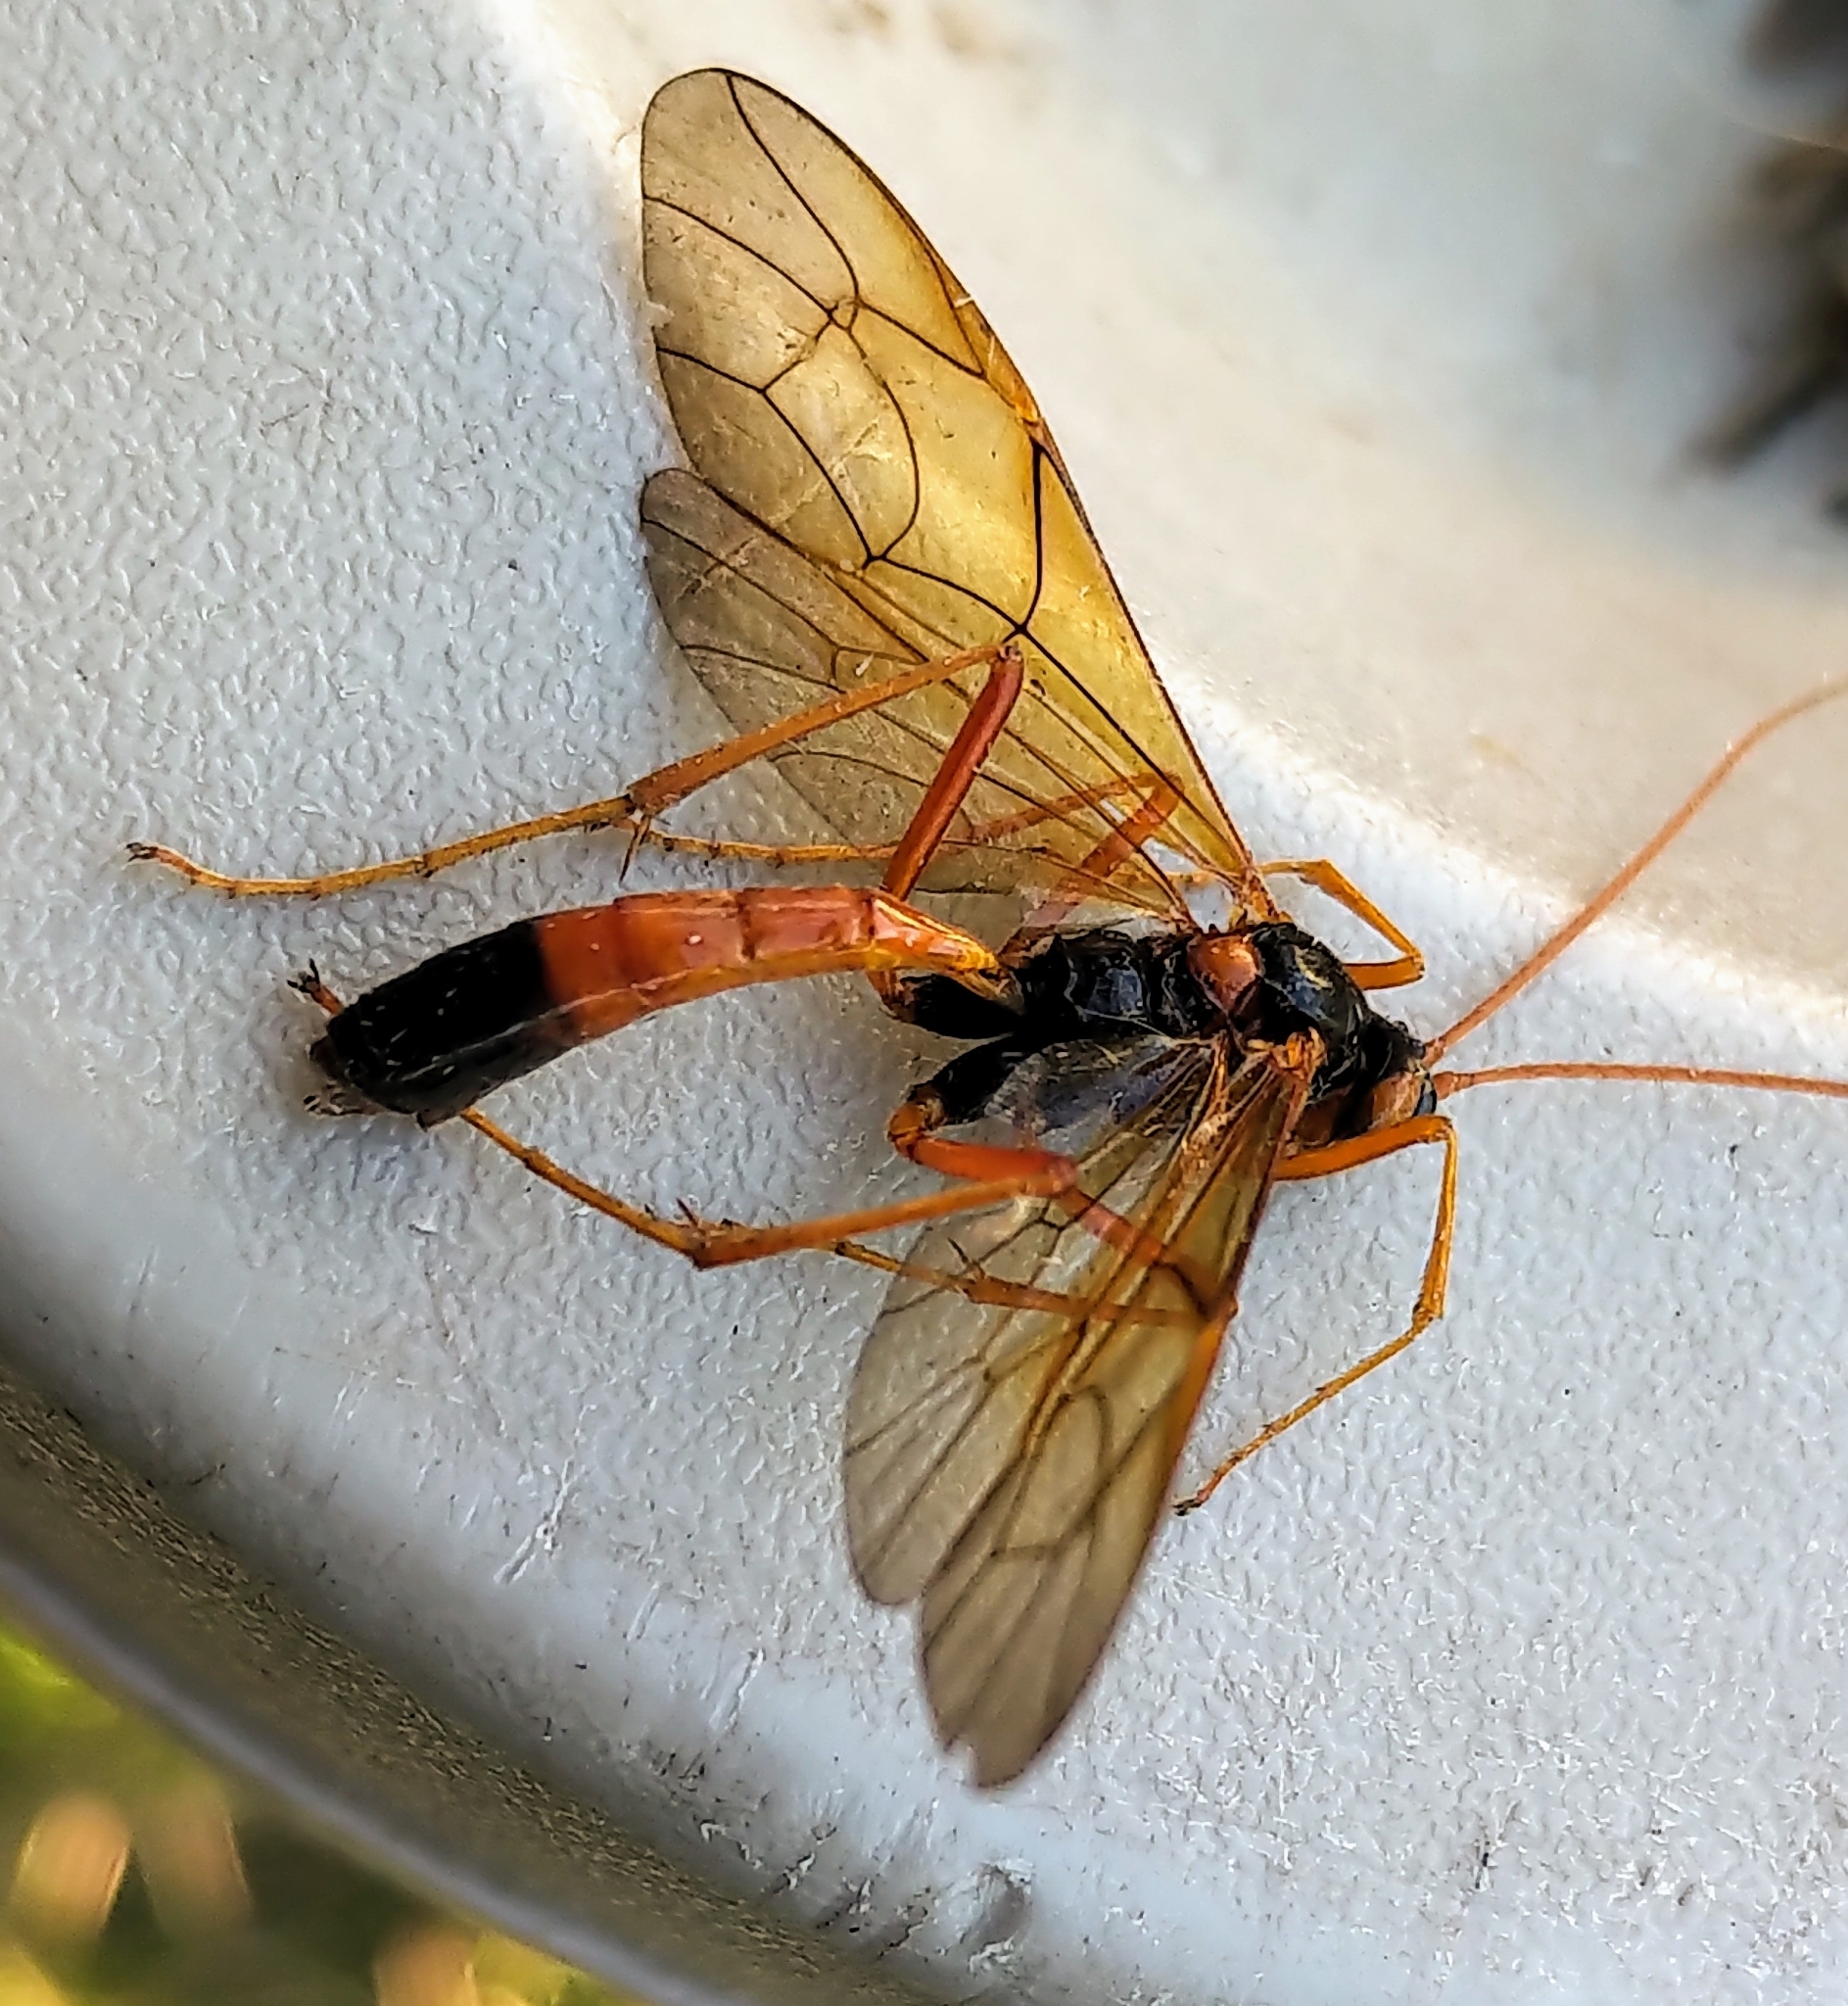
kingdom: Animalia
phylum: Arthropoda
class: Insecta
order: Hymenoptera
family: Ichneumonidae
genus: Opheltes
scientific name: Opheltes glaucopterus
